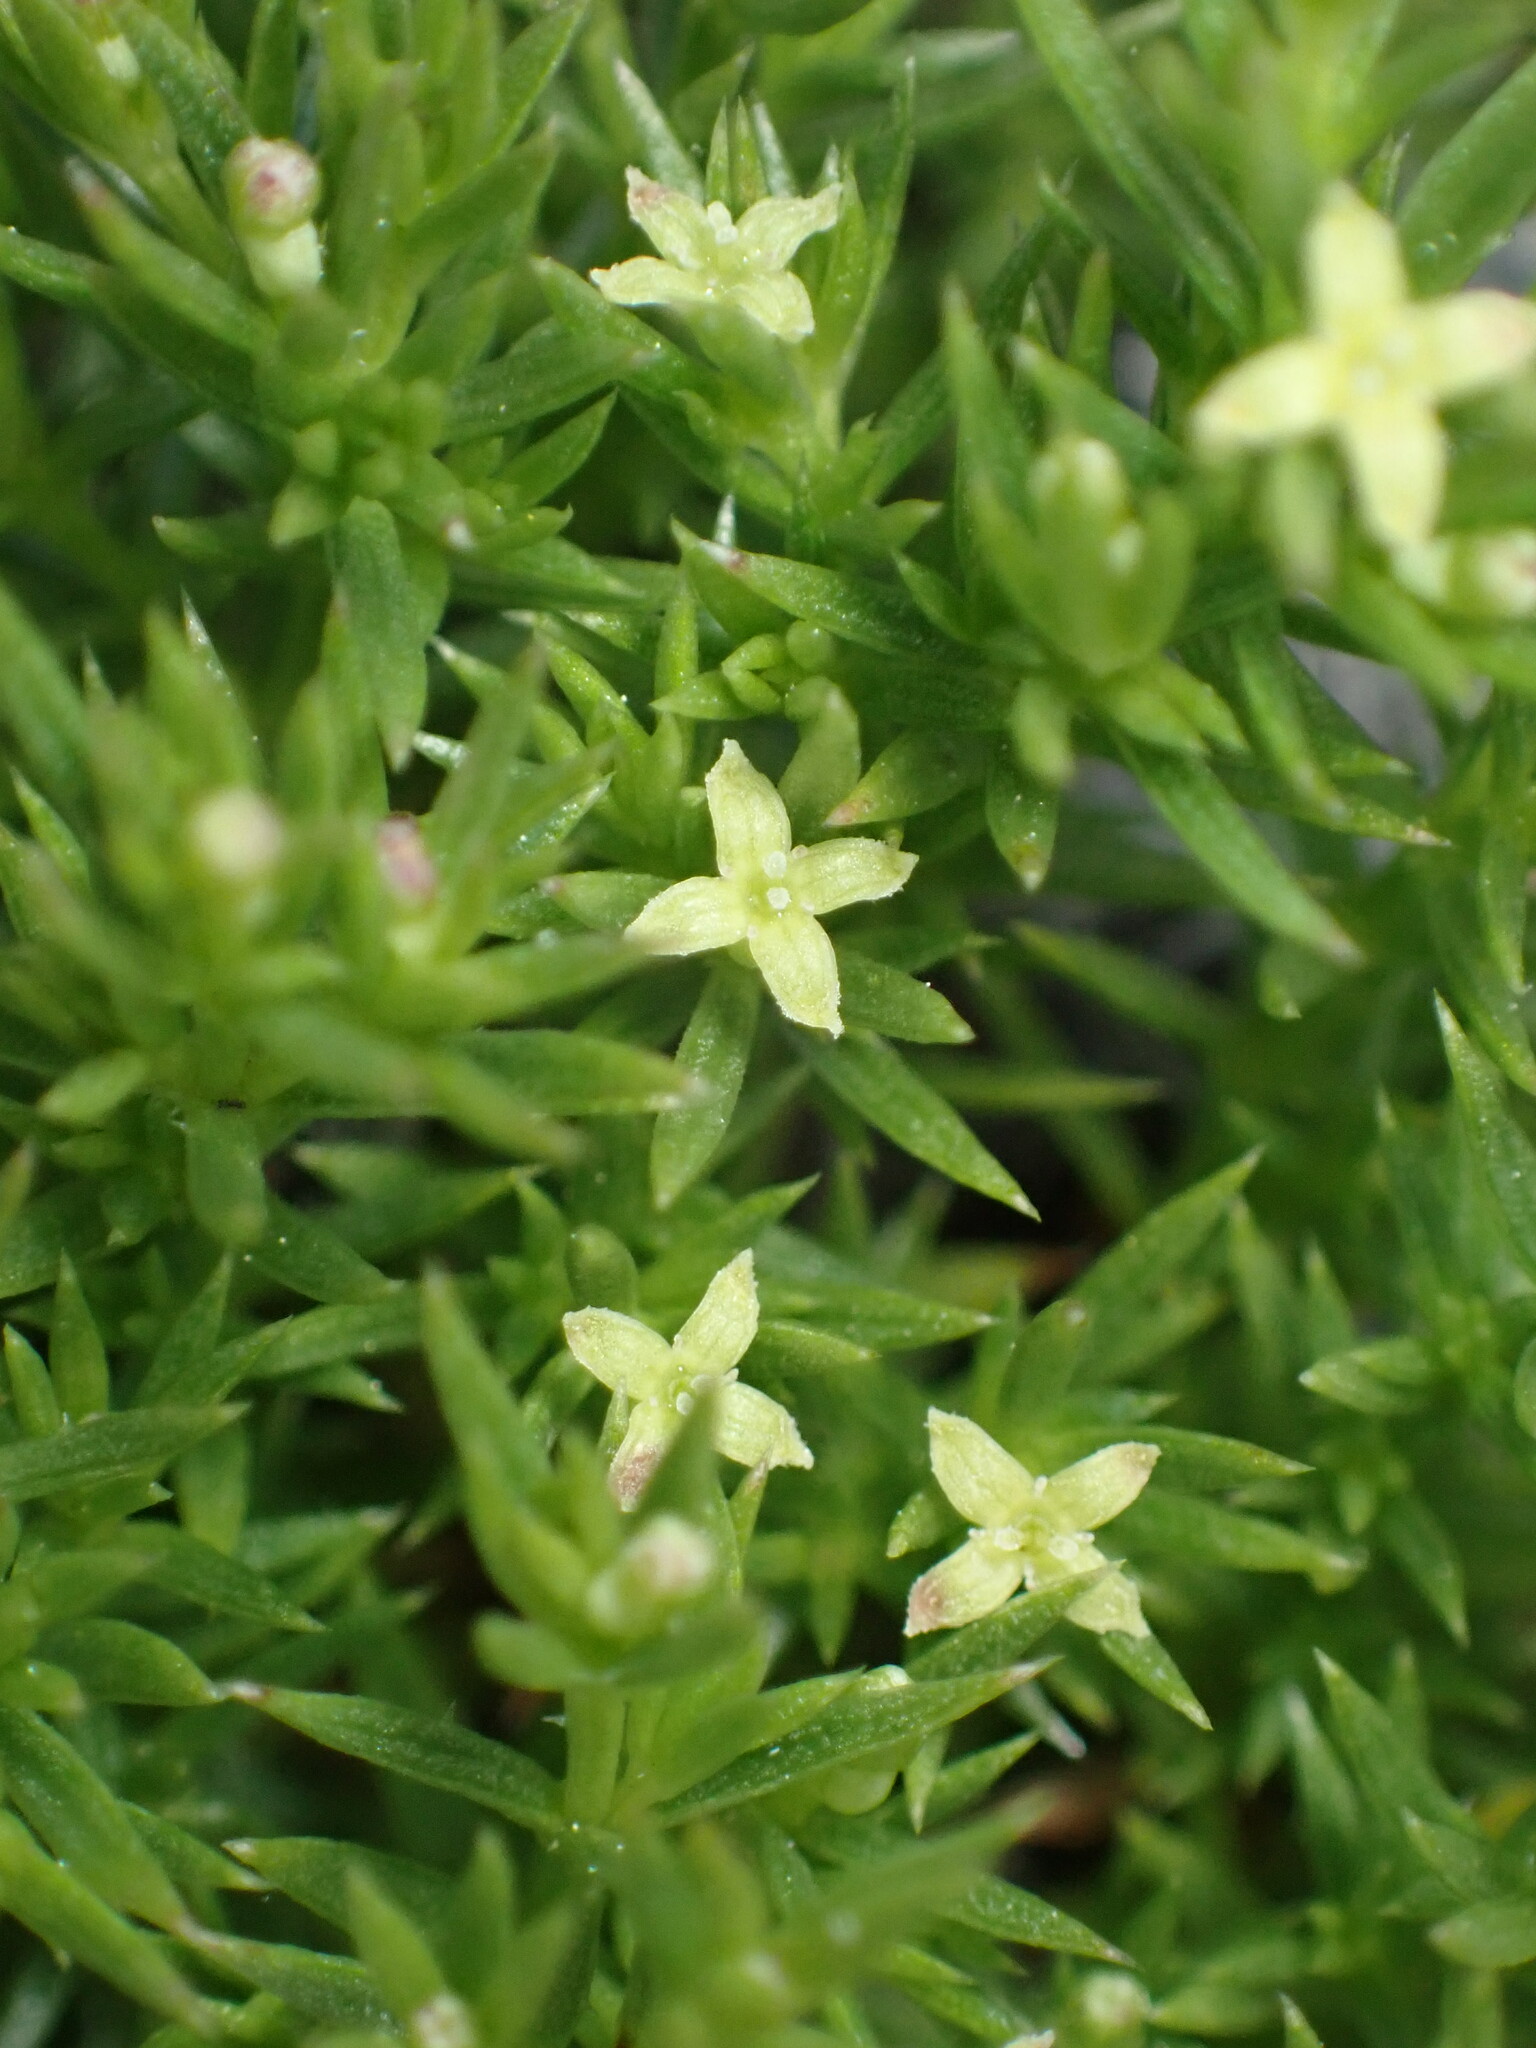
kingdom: Plantae
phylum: Tracheophyta
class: Magnoliopsida
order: Gentianales
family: Rubiaceae
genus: Galium
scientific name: Galium andrewsii
